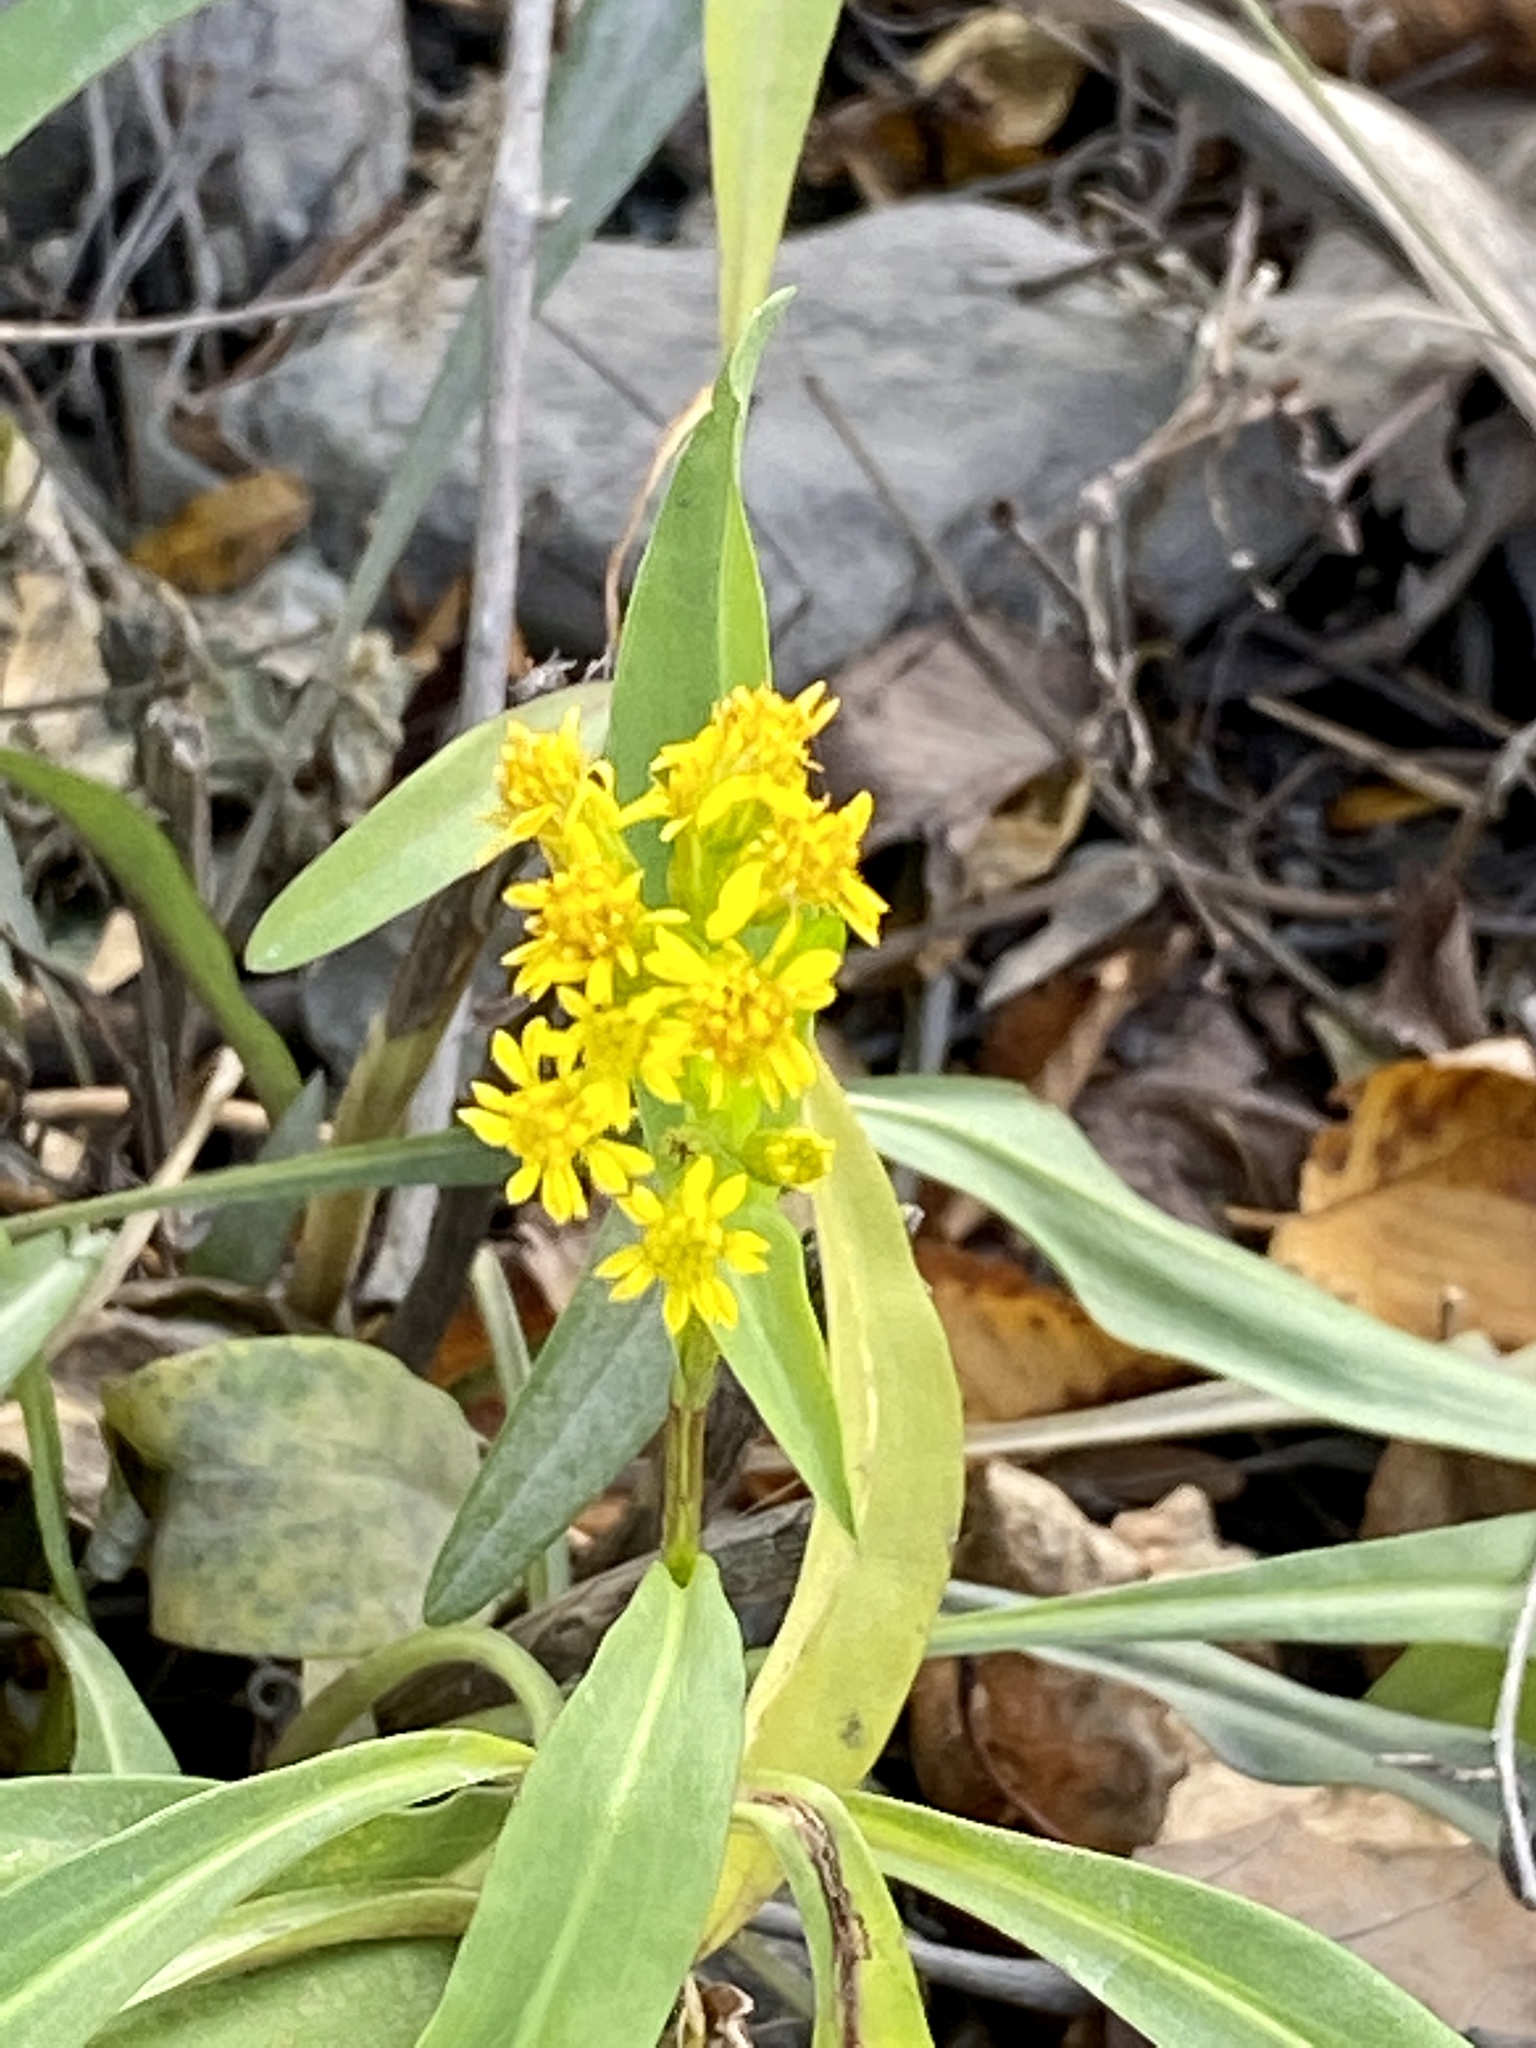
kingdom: Plantae
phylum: Tracheophyta
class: Magnoliopsida
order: Asterales
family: Asteraceae
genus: Solidago
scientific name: Solidago sempervirens
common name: Salt-marsh goldenrod
